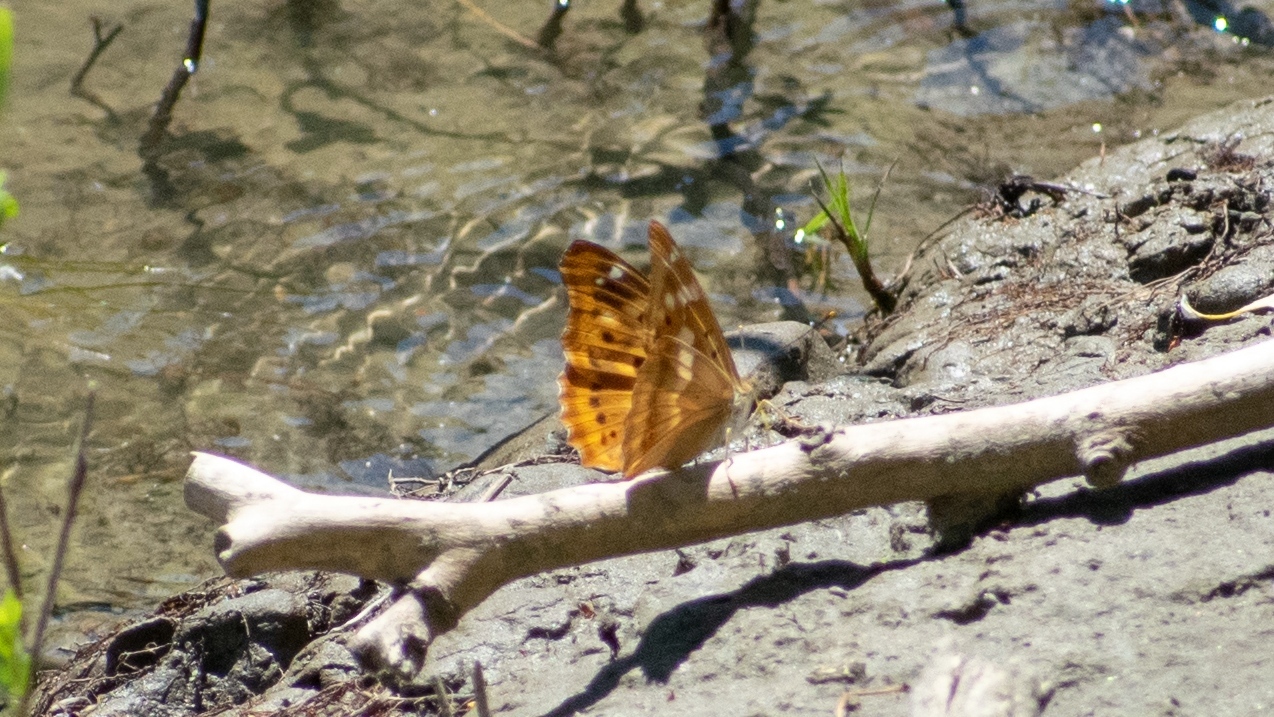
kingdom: Animalia
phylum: Arthropoda
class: Insecta
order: Lepidoptera
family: Nymphalidae
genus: Apatura
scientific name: Apatura ilia
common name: Lesser purple emperor
